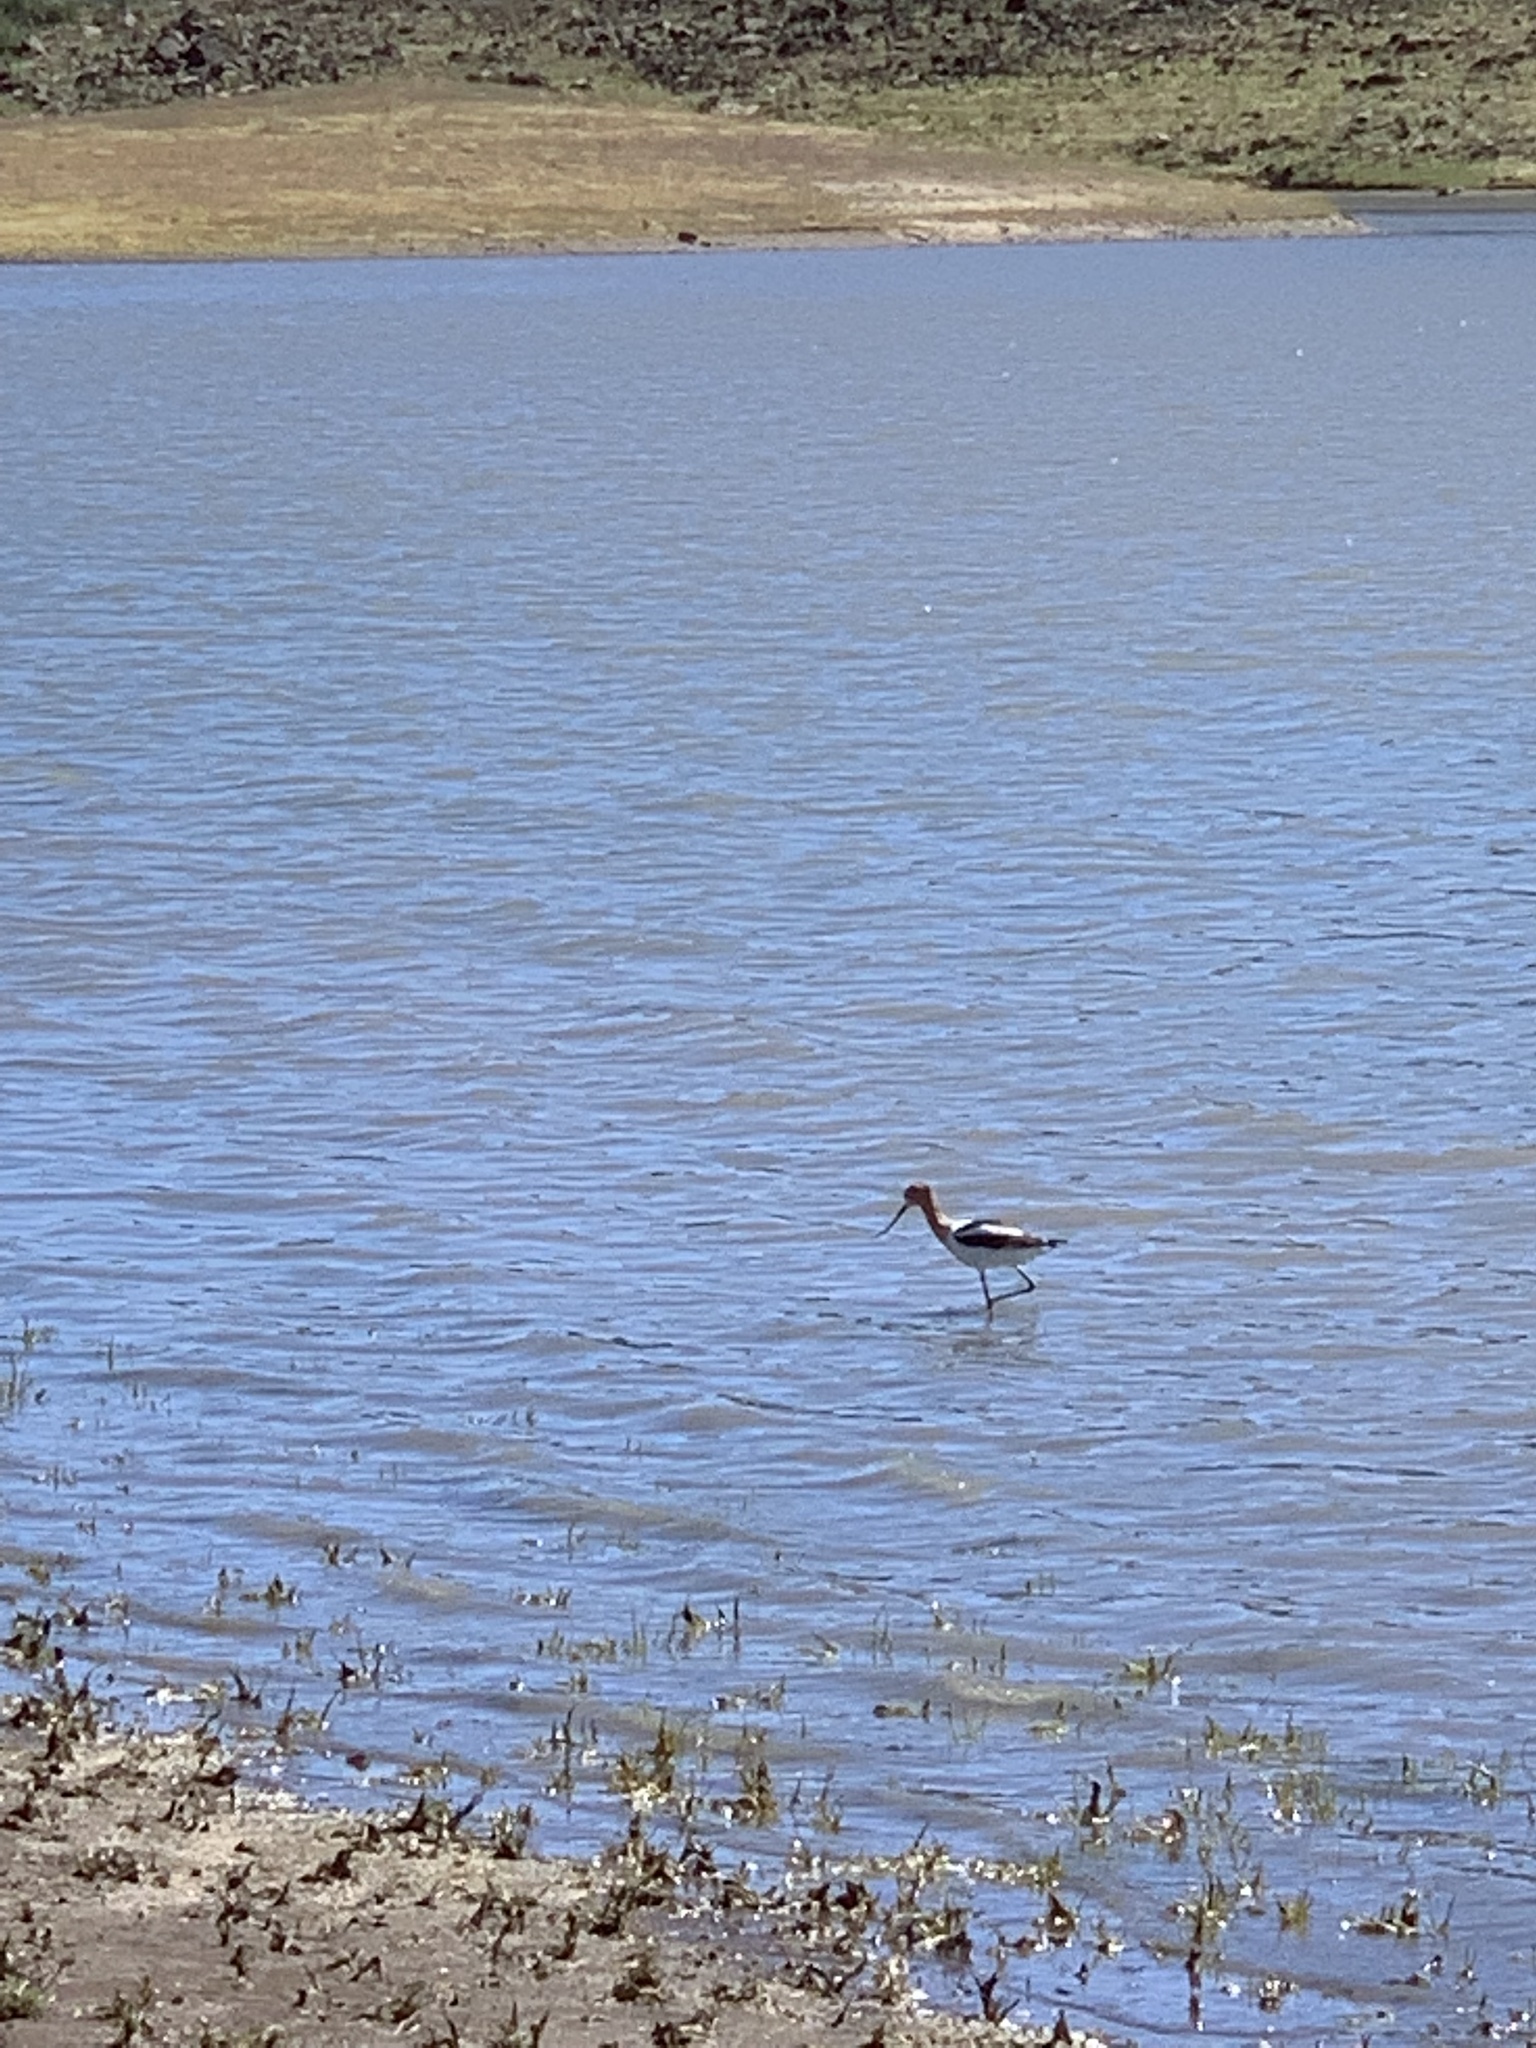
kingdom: Animalia
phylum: Chordata
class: Aves
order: Charadriiformes
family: Recurvirostridae
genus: Recurvirostra
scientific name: Recurvirostra americana
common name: American avocet
